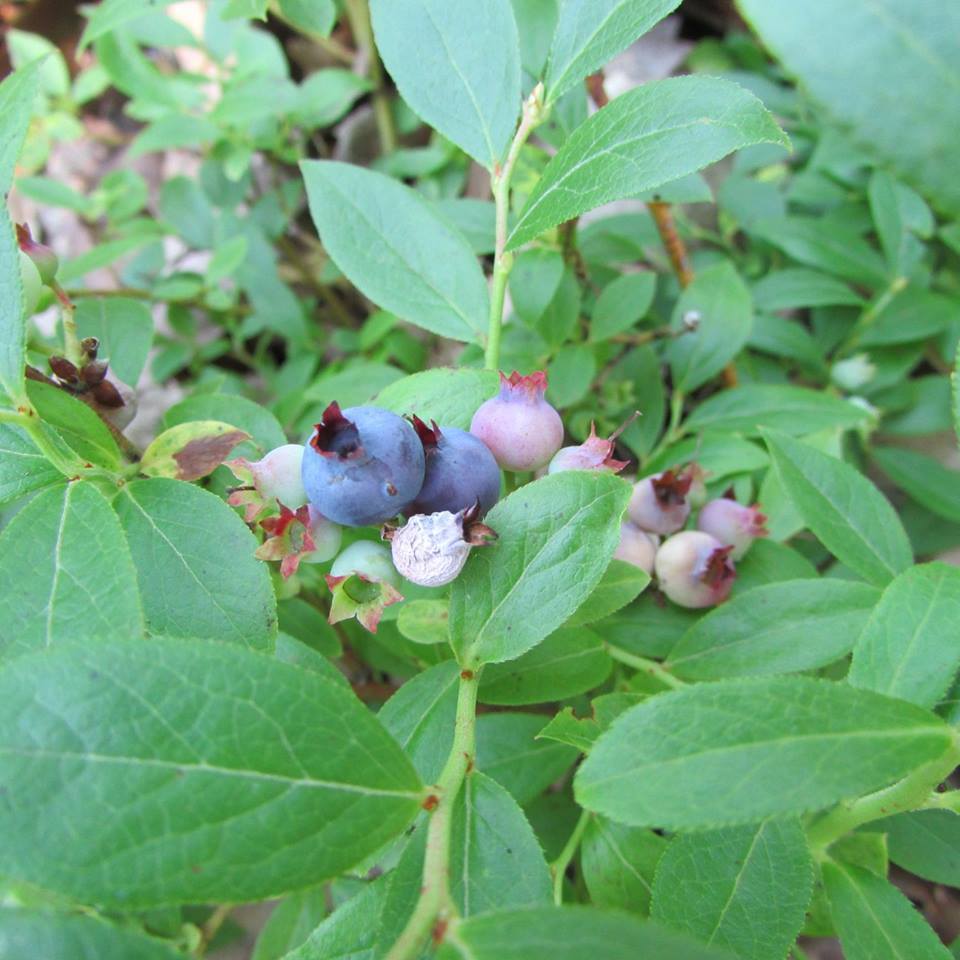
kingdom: Plantae
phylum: Tracheophyta
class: Magnoliopsida
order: Ericales
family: Ericaceae
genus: Vaccinium
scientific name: Vaccinium angustifolium
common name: Early lowbush blueberry
